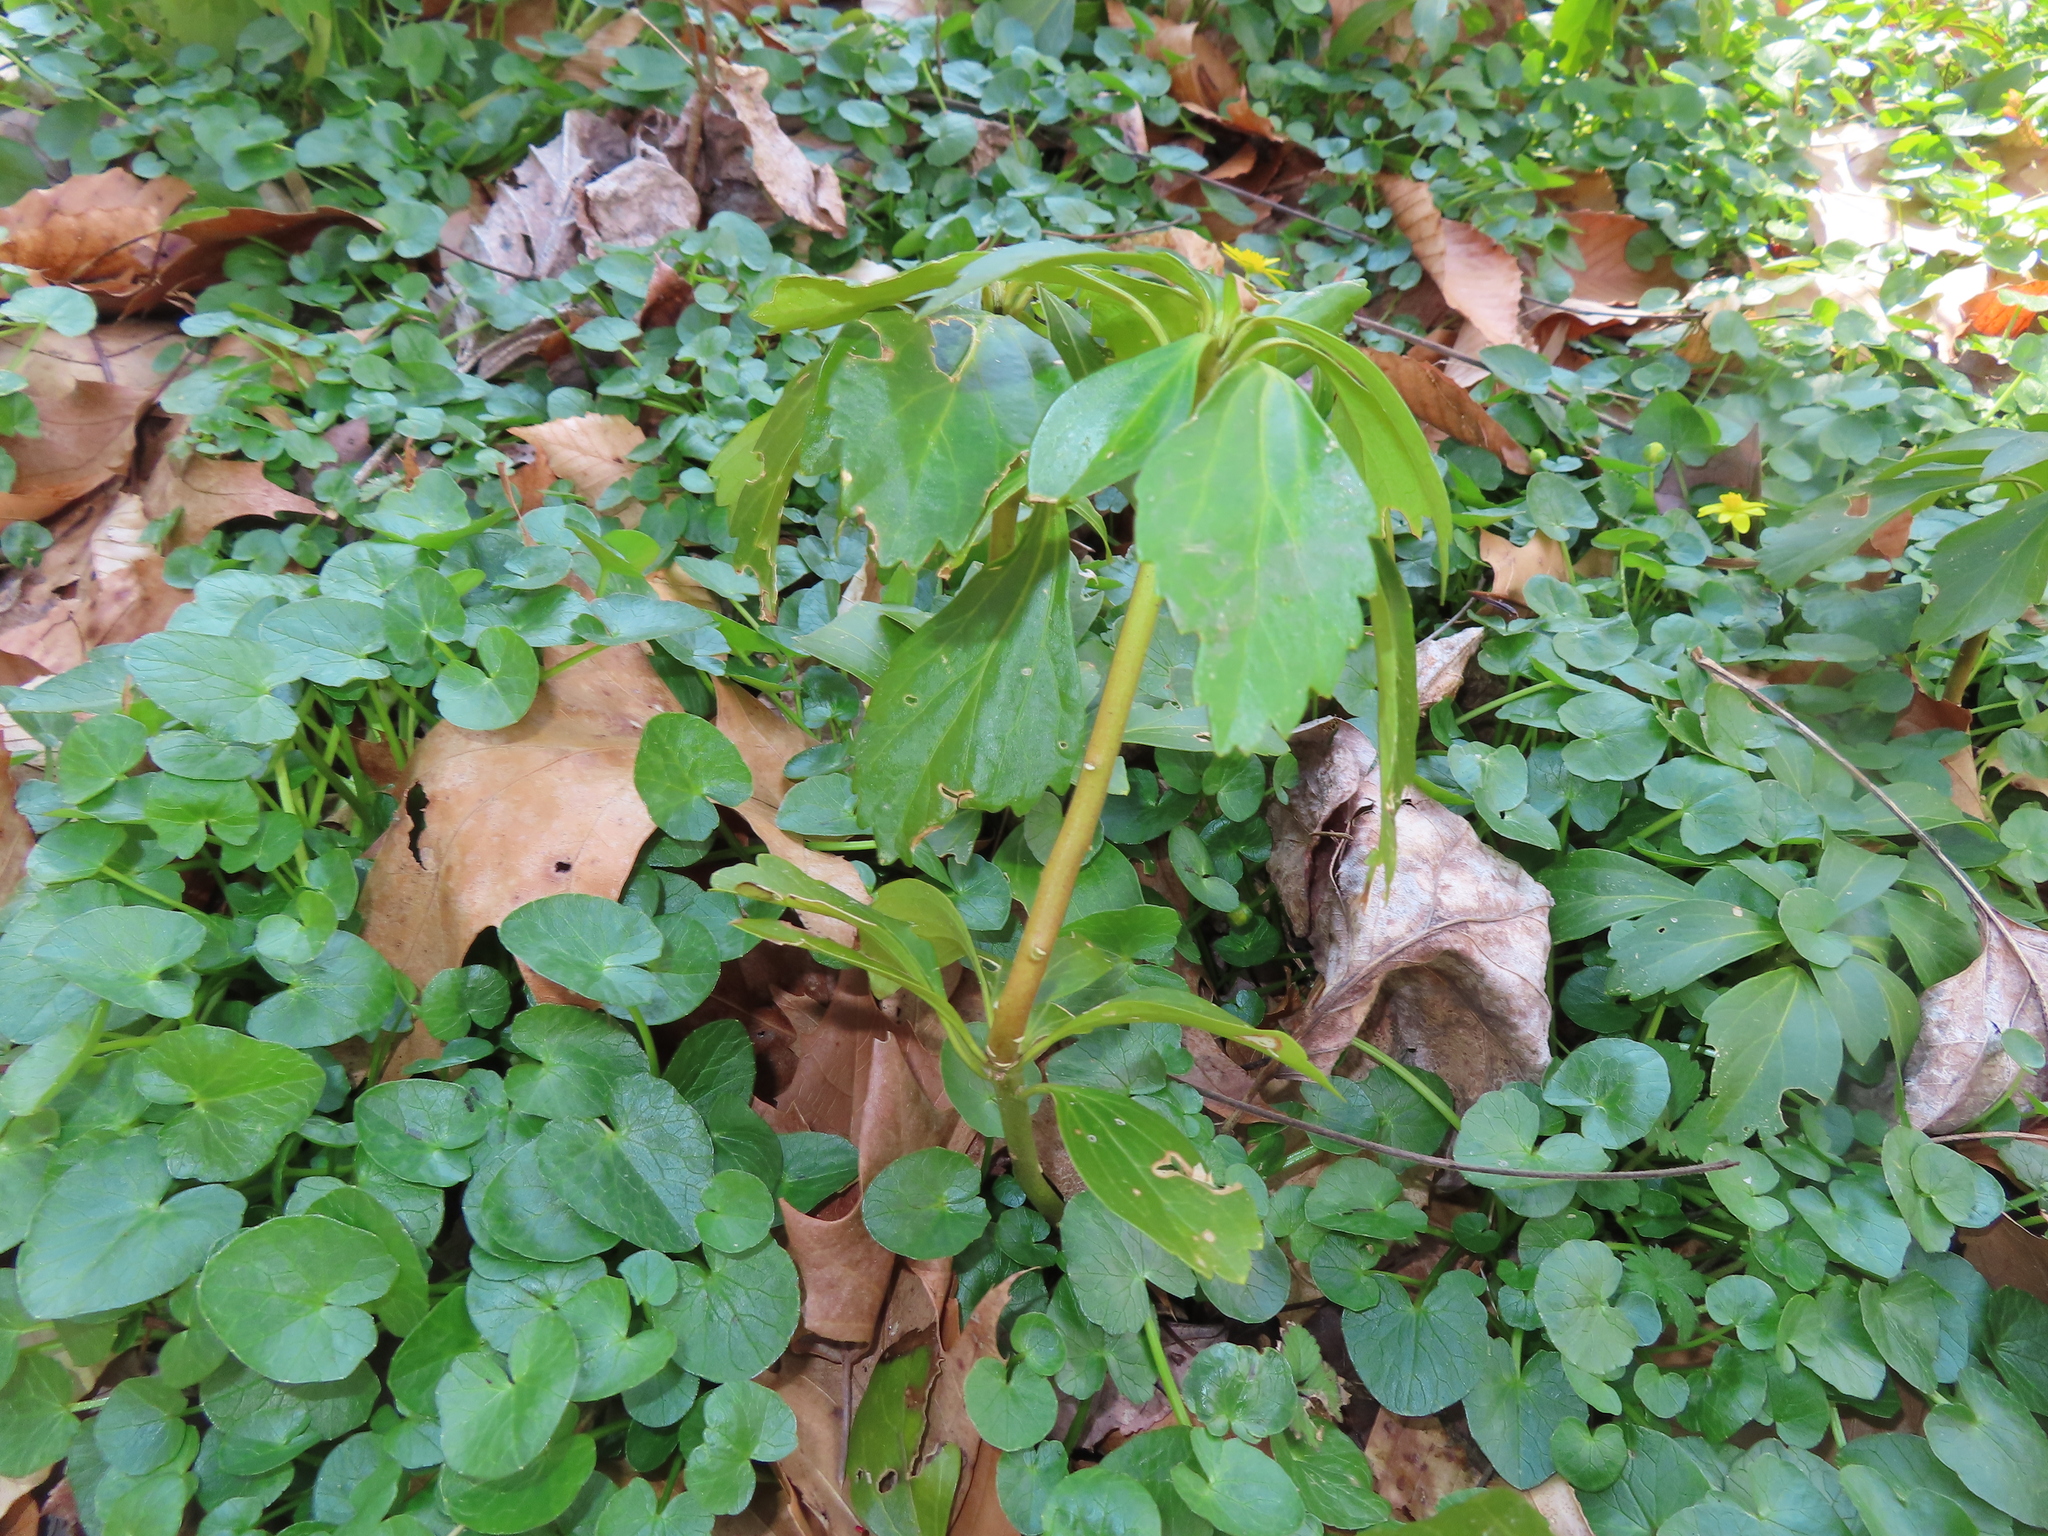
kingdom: Plantae
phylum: Tracheophyta
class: Magnoliopsida
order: Buxales
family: Buxaceae
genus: Pachysandra
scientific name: Pachysandra terminalis
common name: Japanese pachysandra
